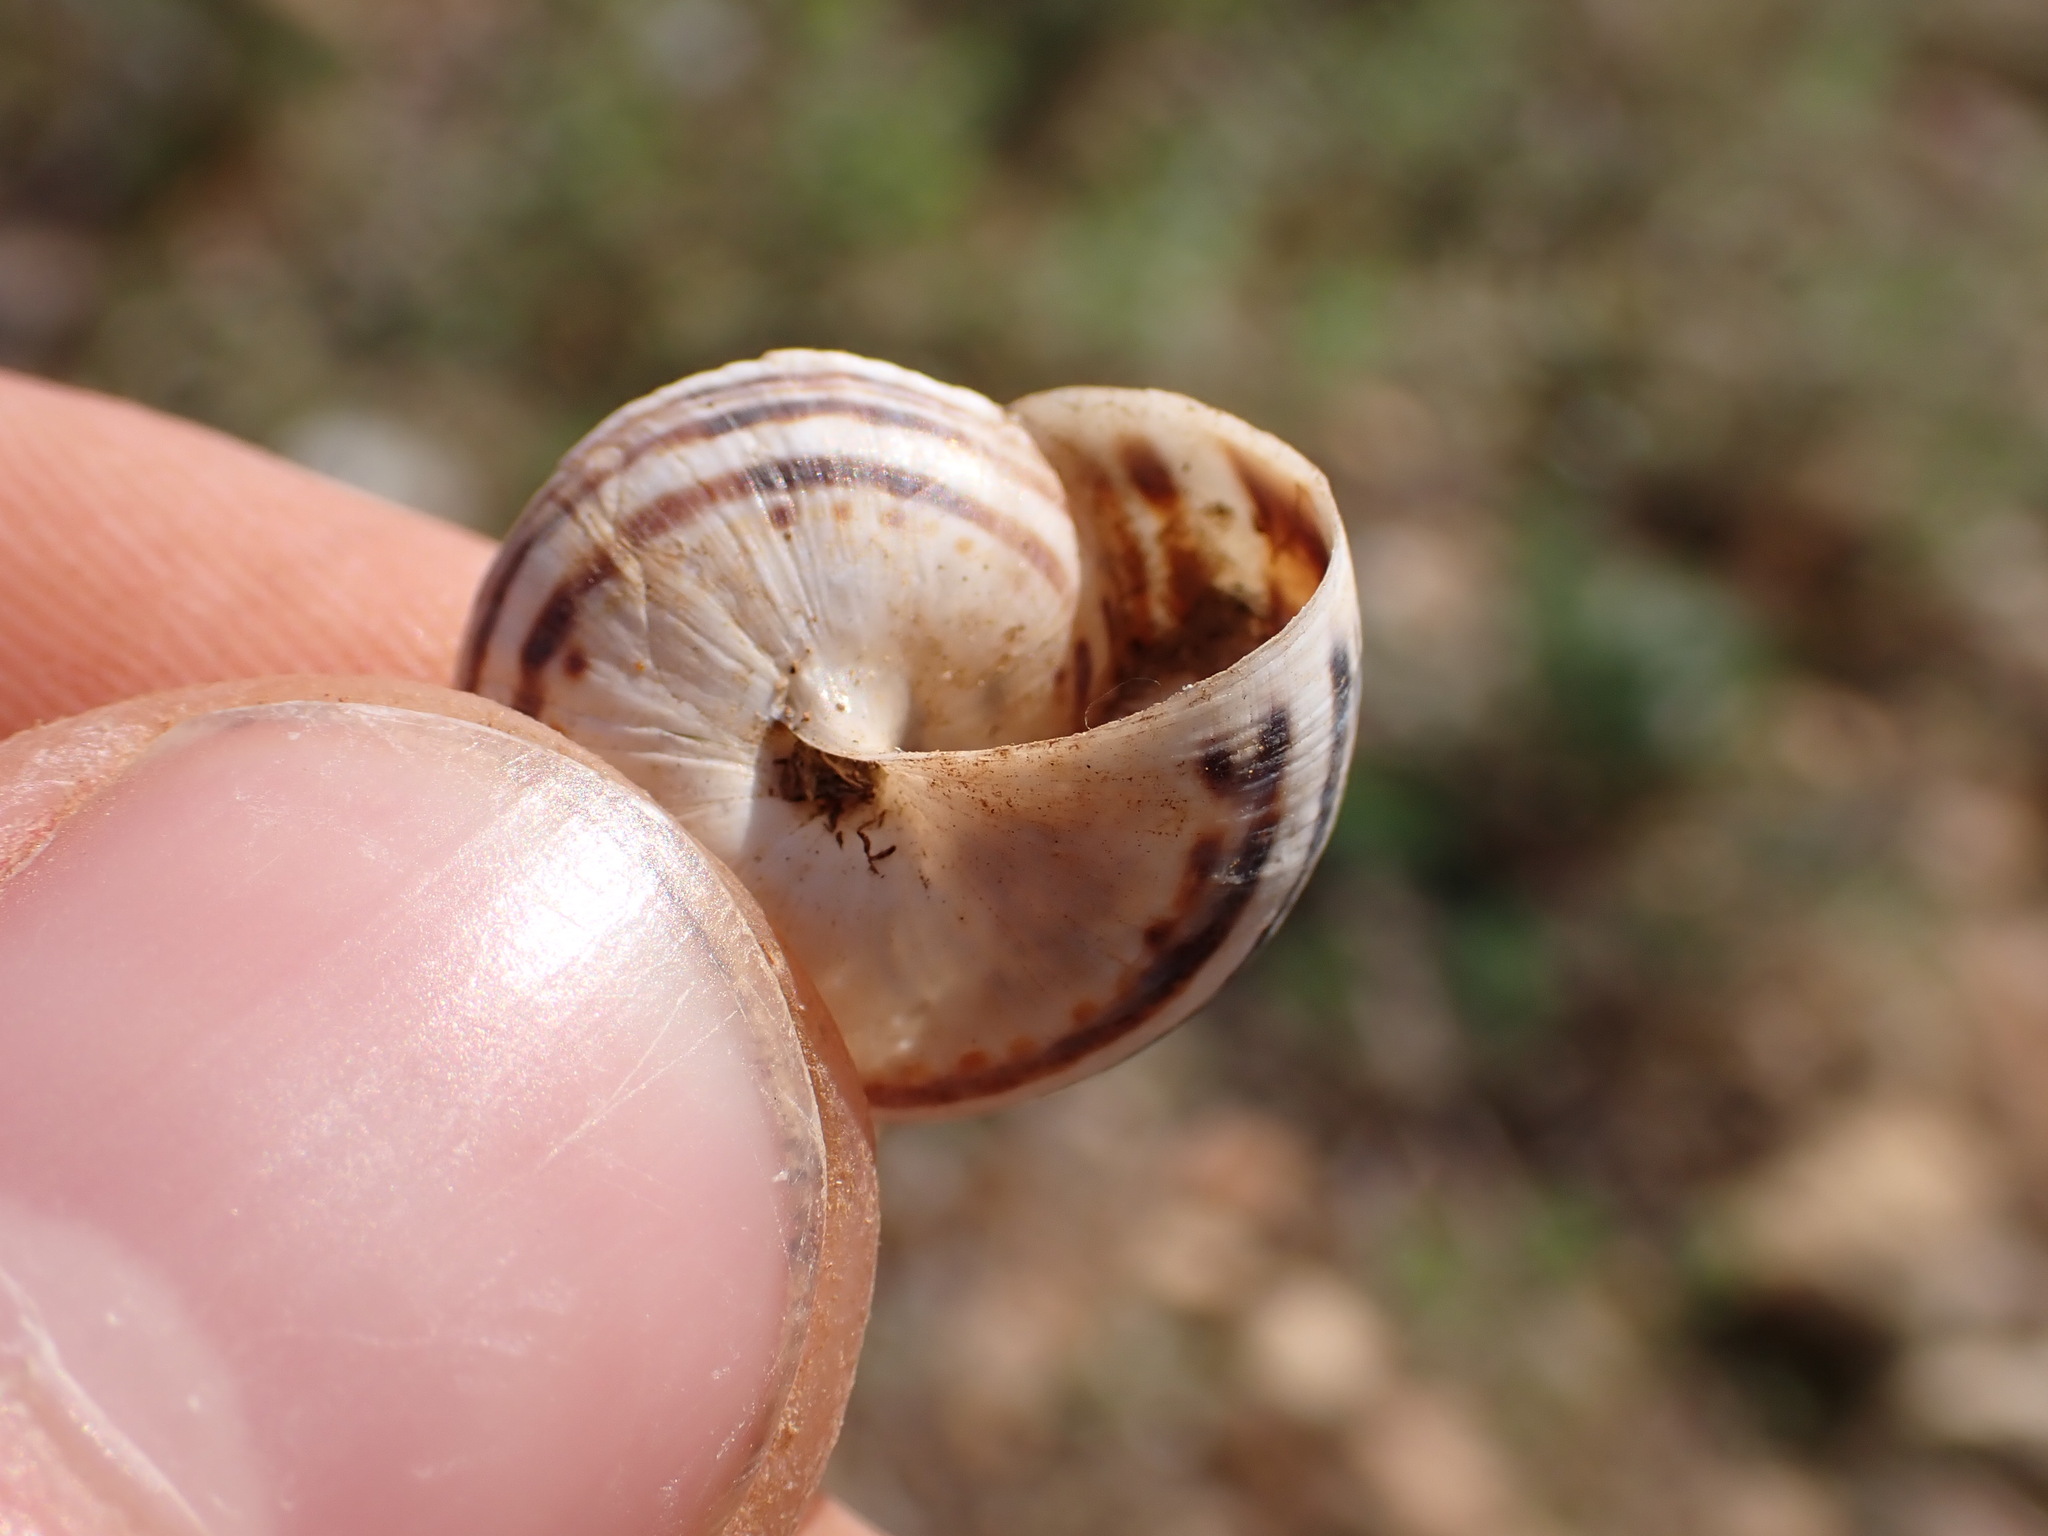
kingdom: Animalia
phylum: Mollusca
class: Gastropoda
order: Stylommatophora
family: Helicidae
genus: Theba
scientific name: Theba pisana
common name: White snail
